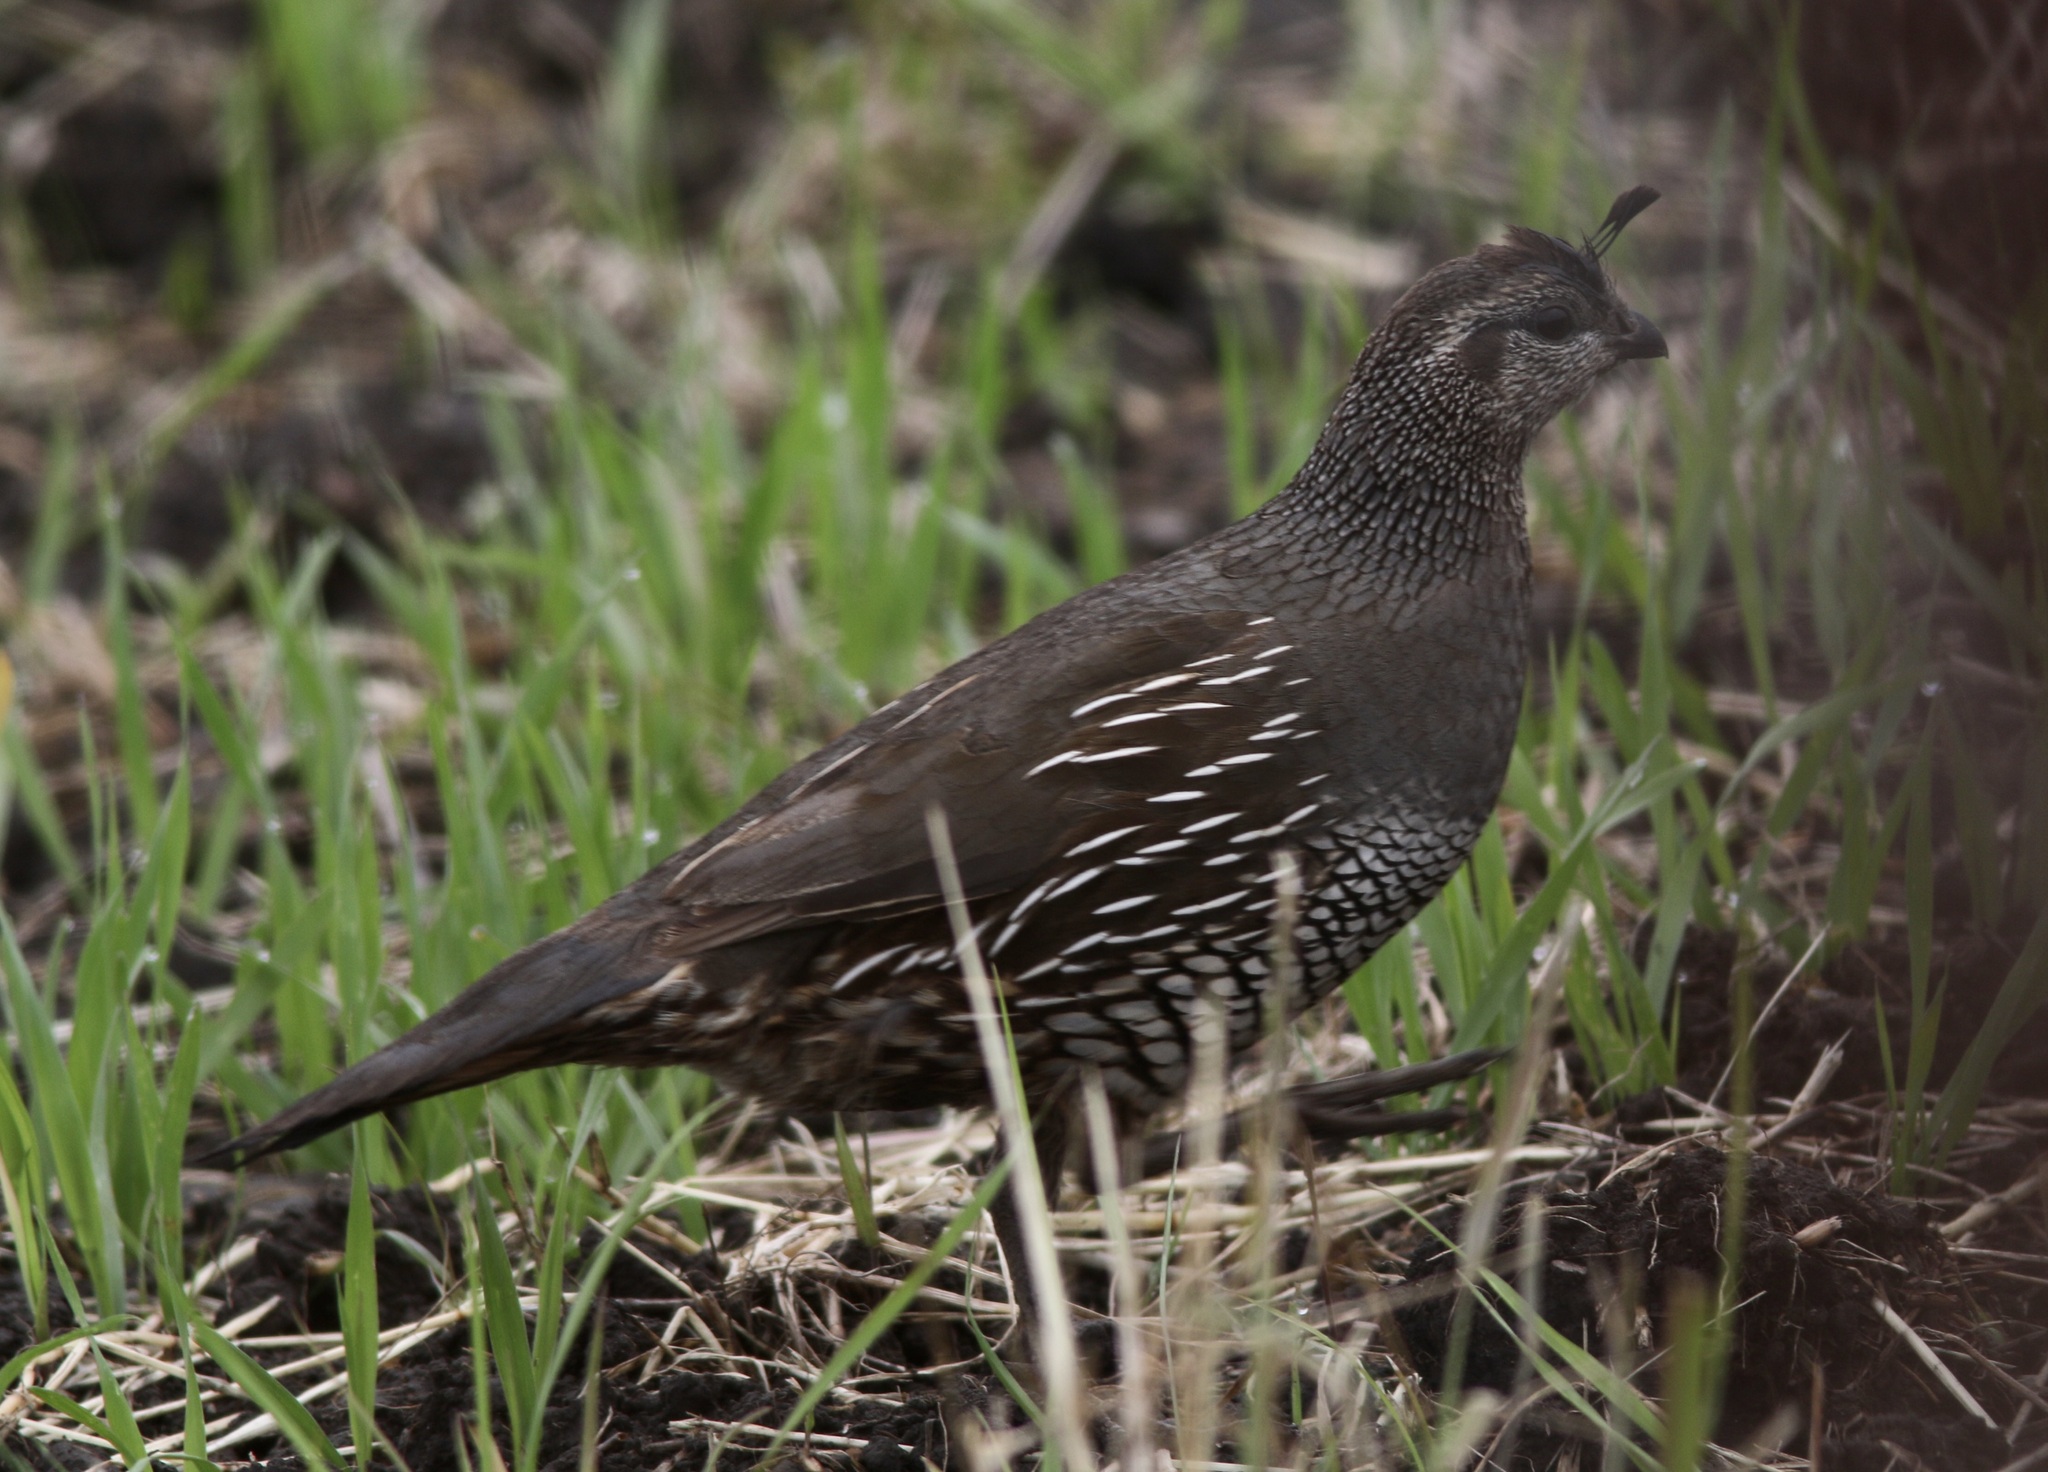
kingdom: Animalia
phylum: Chordata
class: Aves
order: Galliformes
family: Odontophoridae
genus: Callipepla
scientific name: Callipepla californica
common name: California quail
